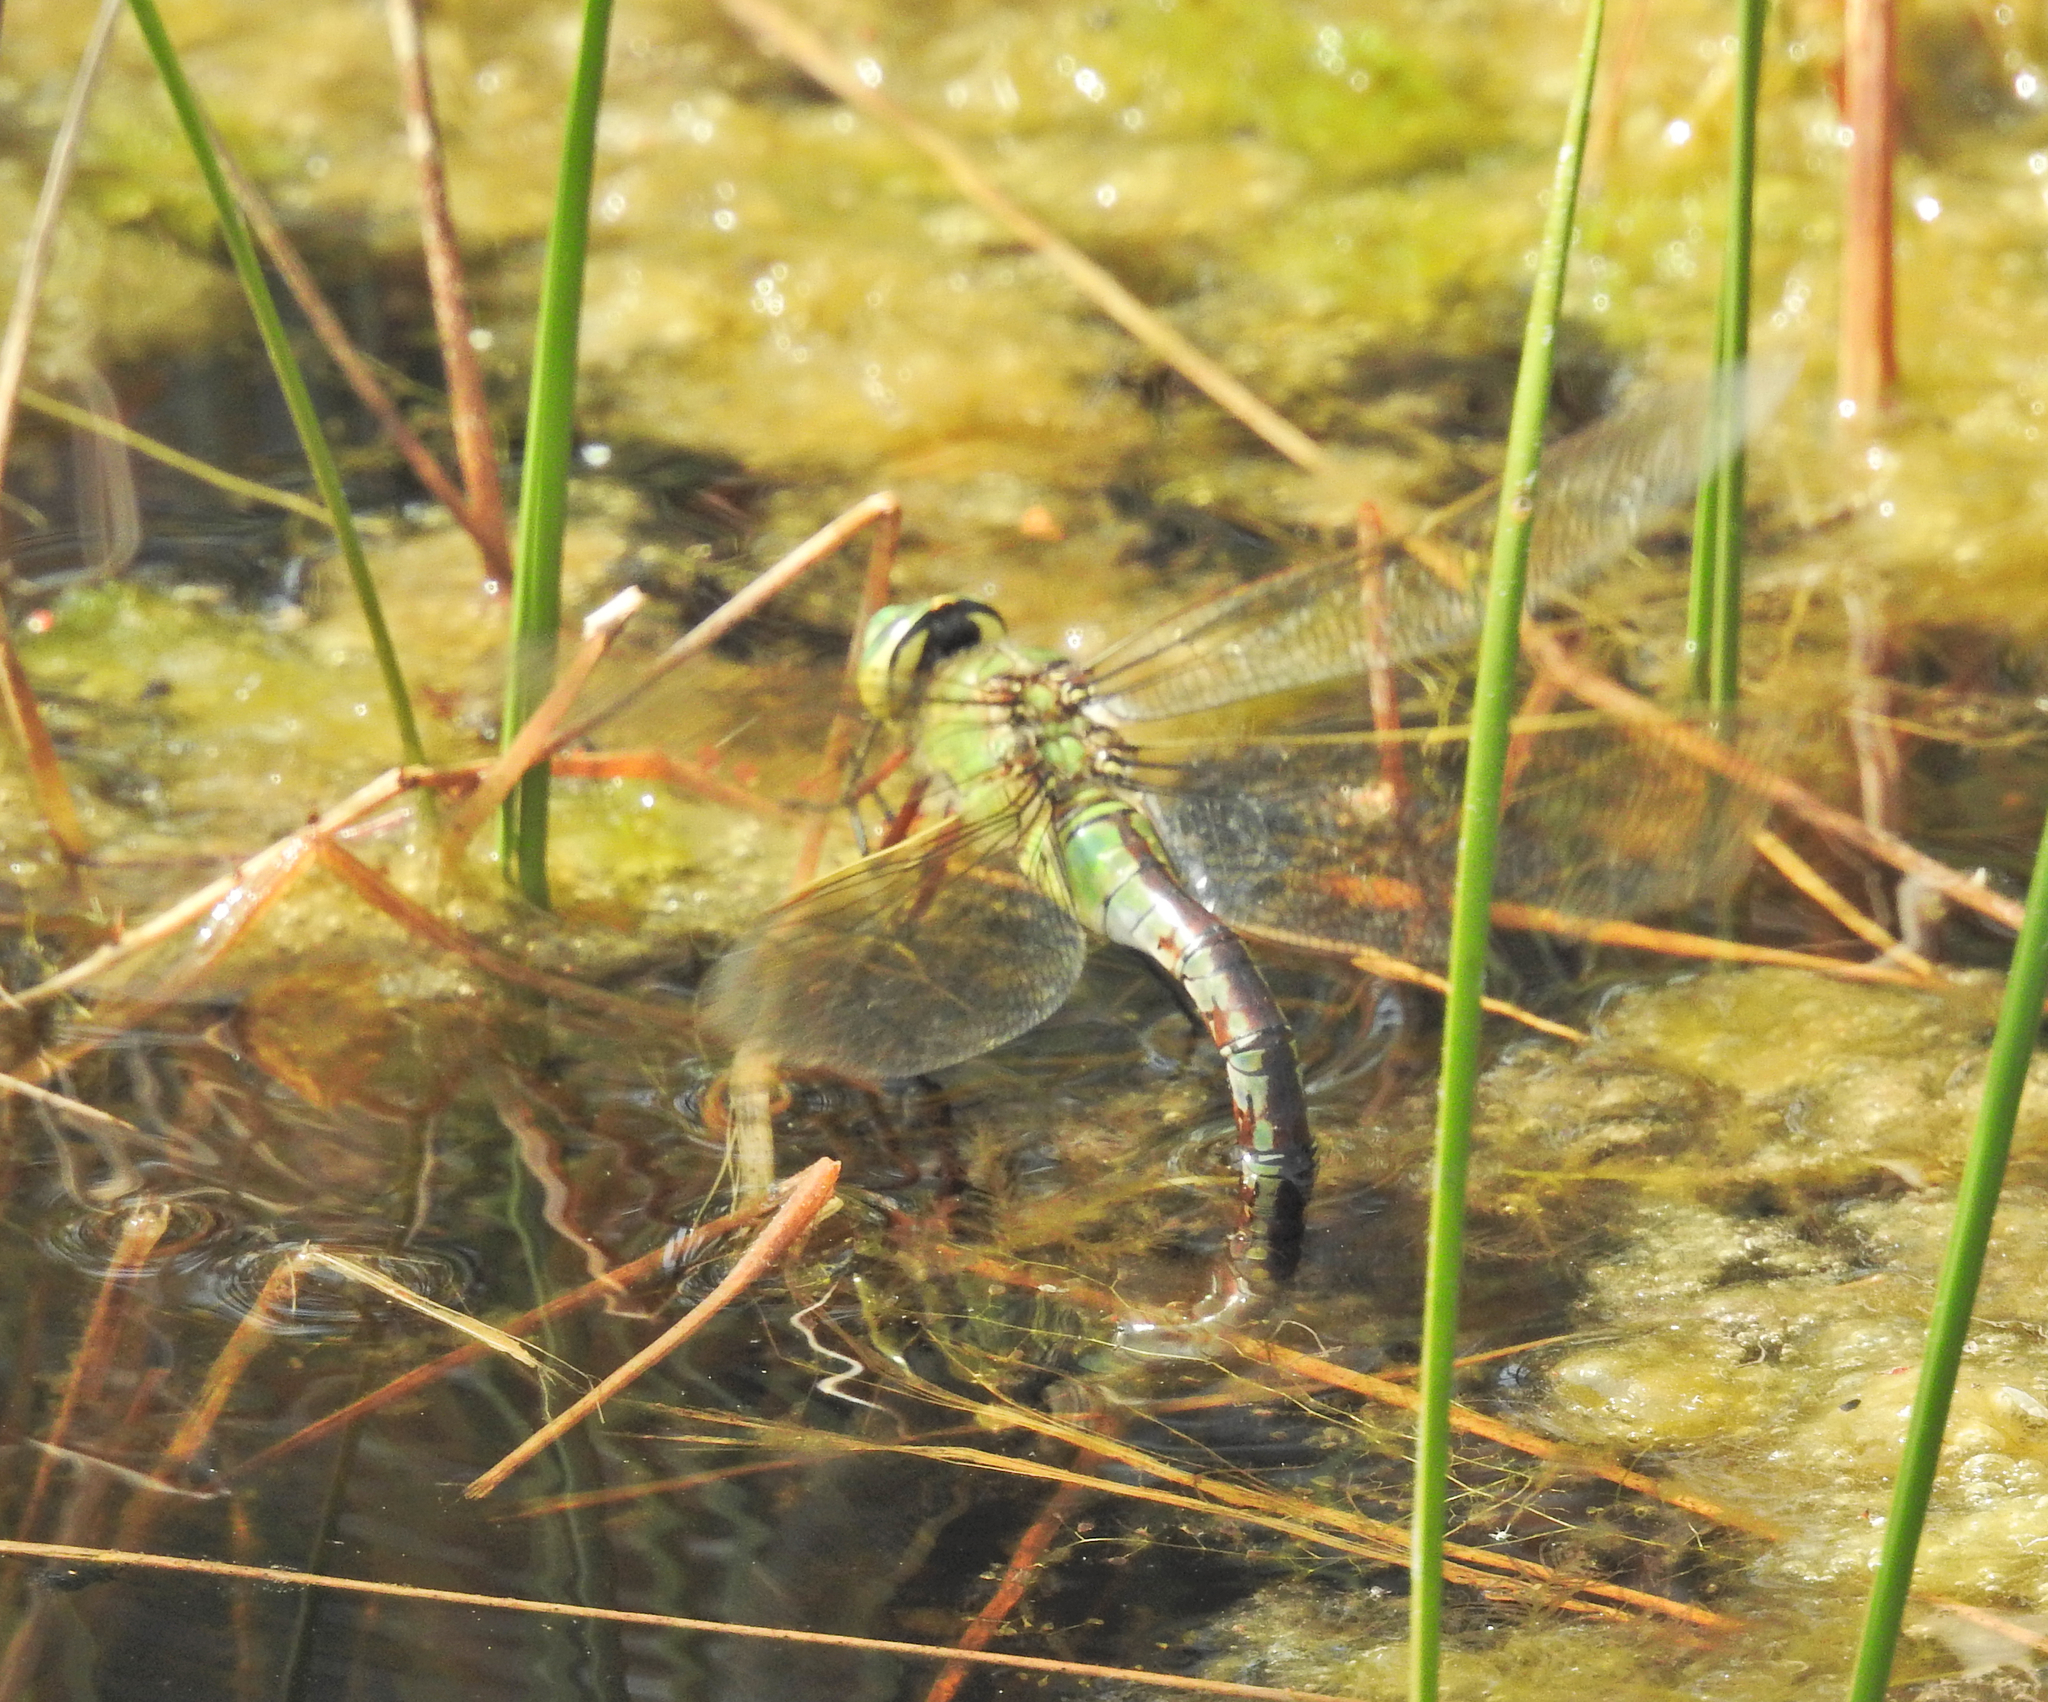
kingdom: Animalia
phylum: Arthropoda
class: Insecta
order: Odonata
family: Aeshnidae
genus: Anax
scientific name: Anax imperator
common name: Emperor dragonfly
